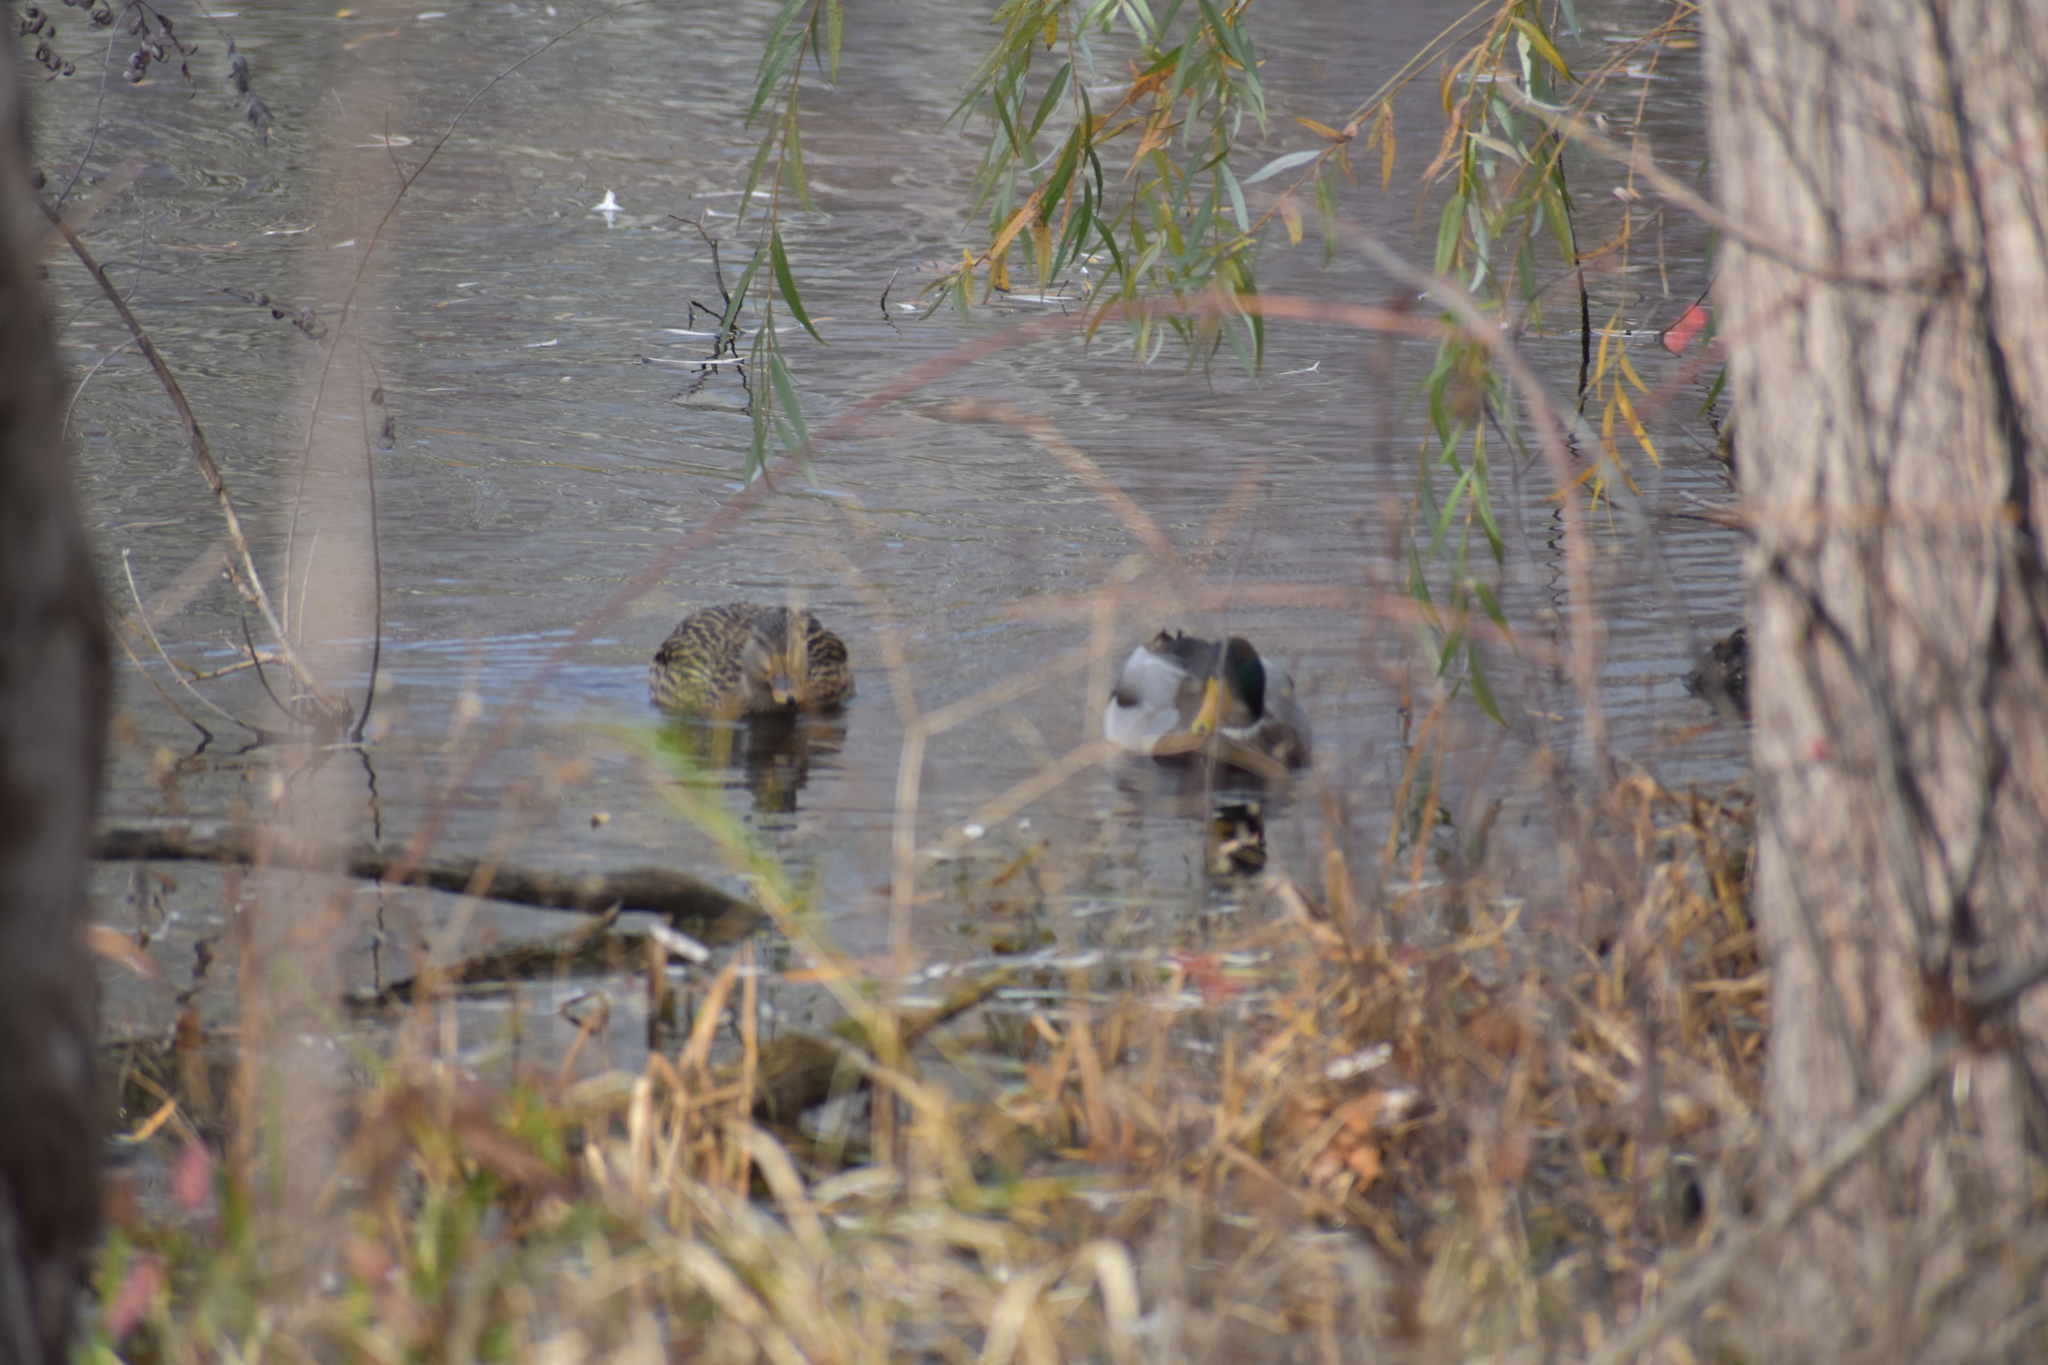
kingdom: Animalia
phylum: Chordata
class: Aves
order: Anseriformes
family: Anatidae
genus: Anas
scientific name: Anas platyrhynchos
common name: Mallard
